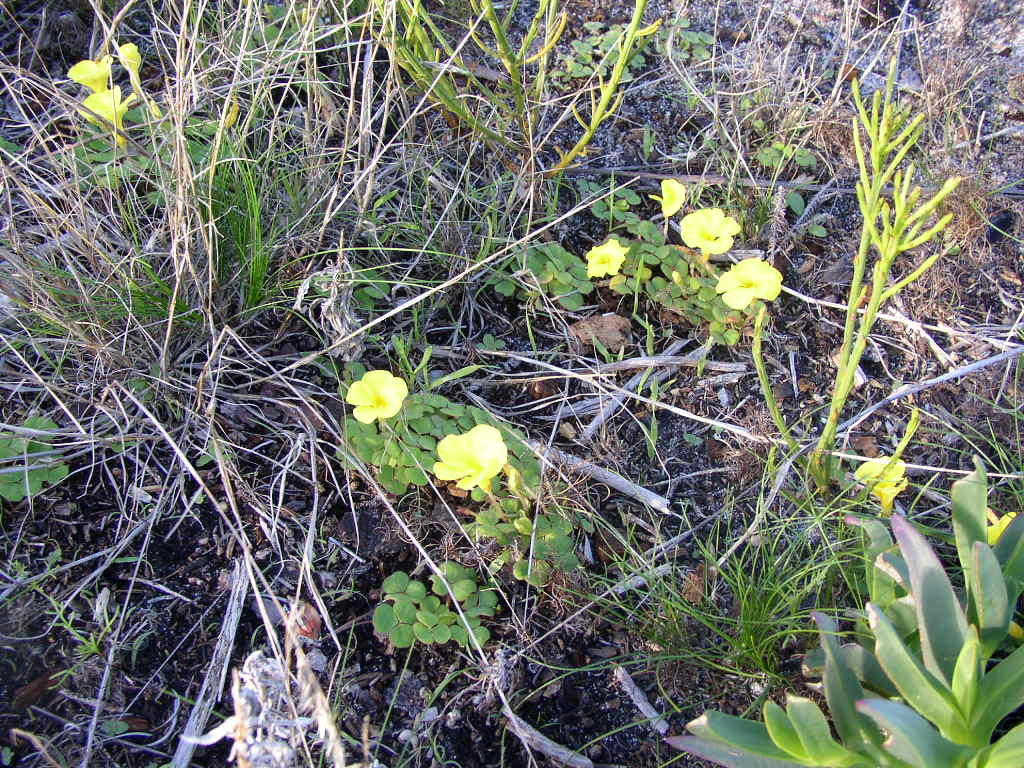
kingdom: Plantae
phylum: Tracheophyta
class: Magnoliopsida
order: Oxalidales
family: Oxalidaceae
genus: Oxalis
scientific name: Oxalis luteola
